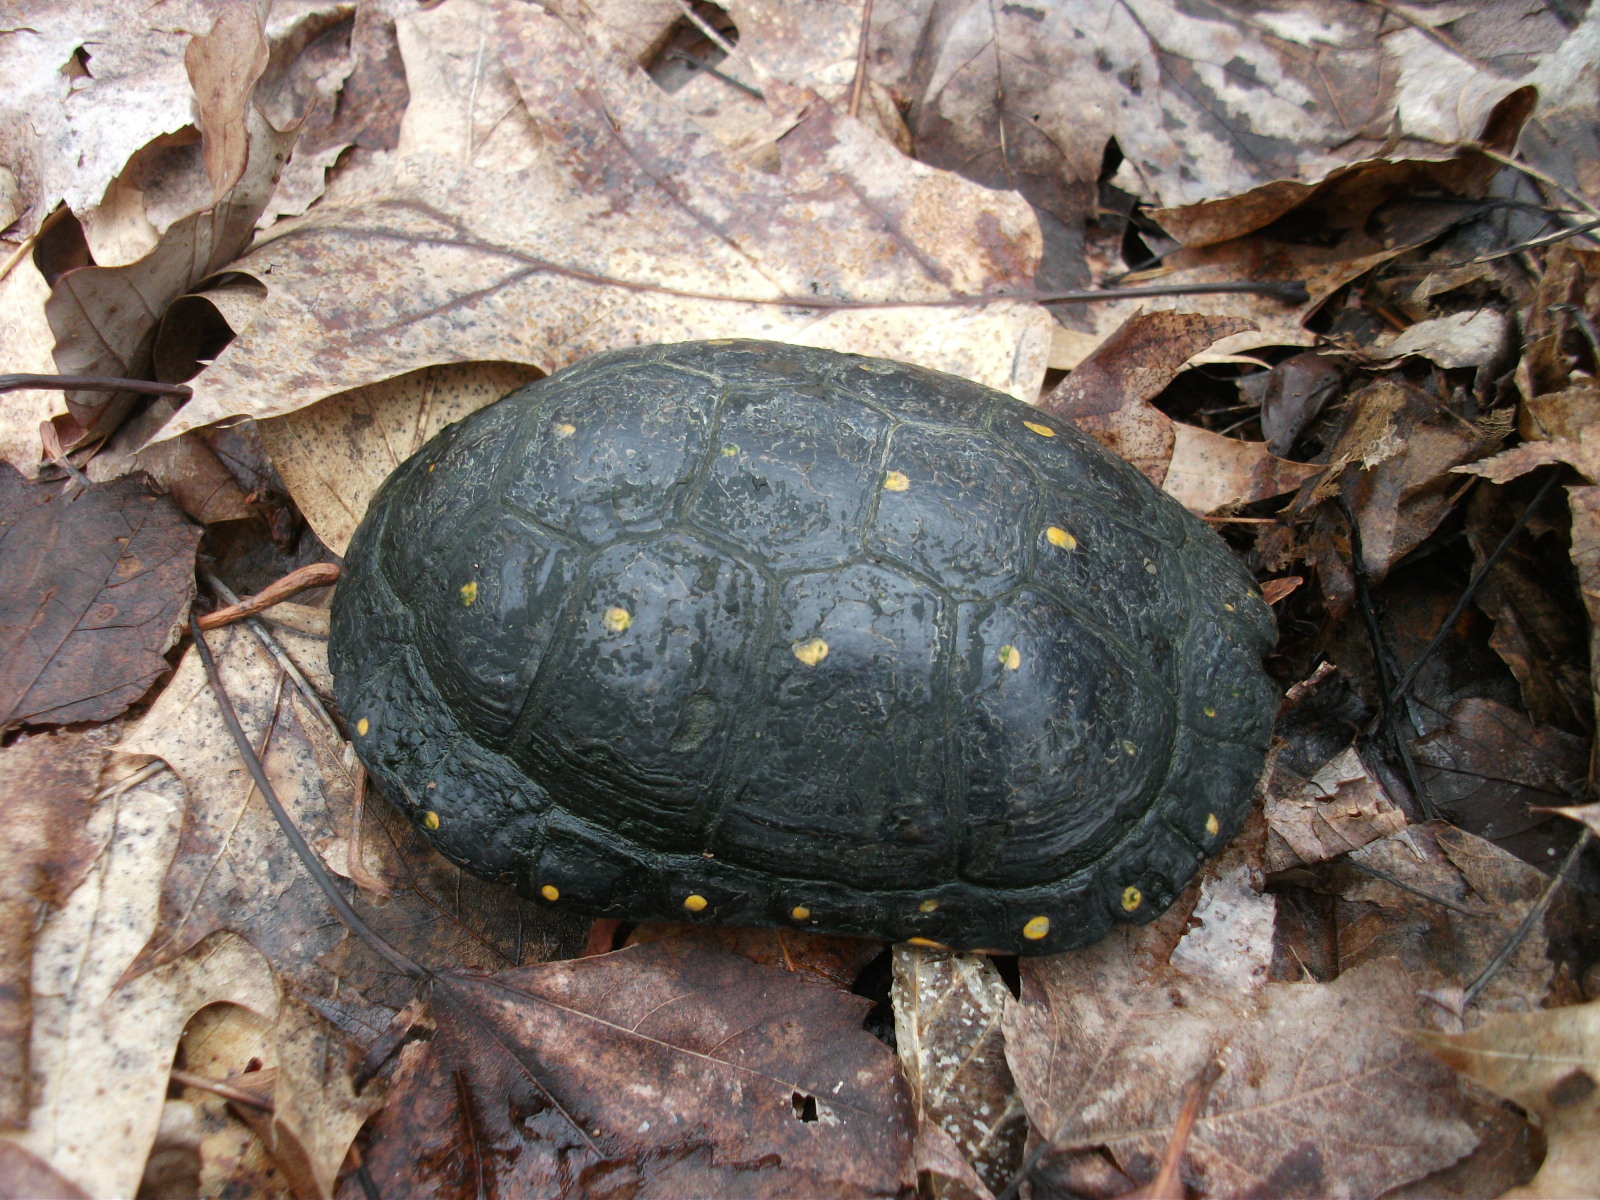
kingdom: Animalia
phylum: Chordata
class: Testudines
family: Emydidae
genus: Clemmys
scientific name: Clemmys guttata
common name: Spotted turtle
